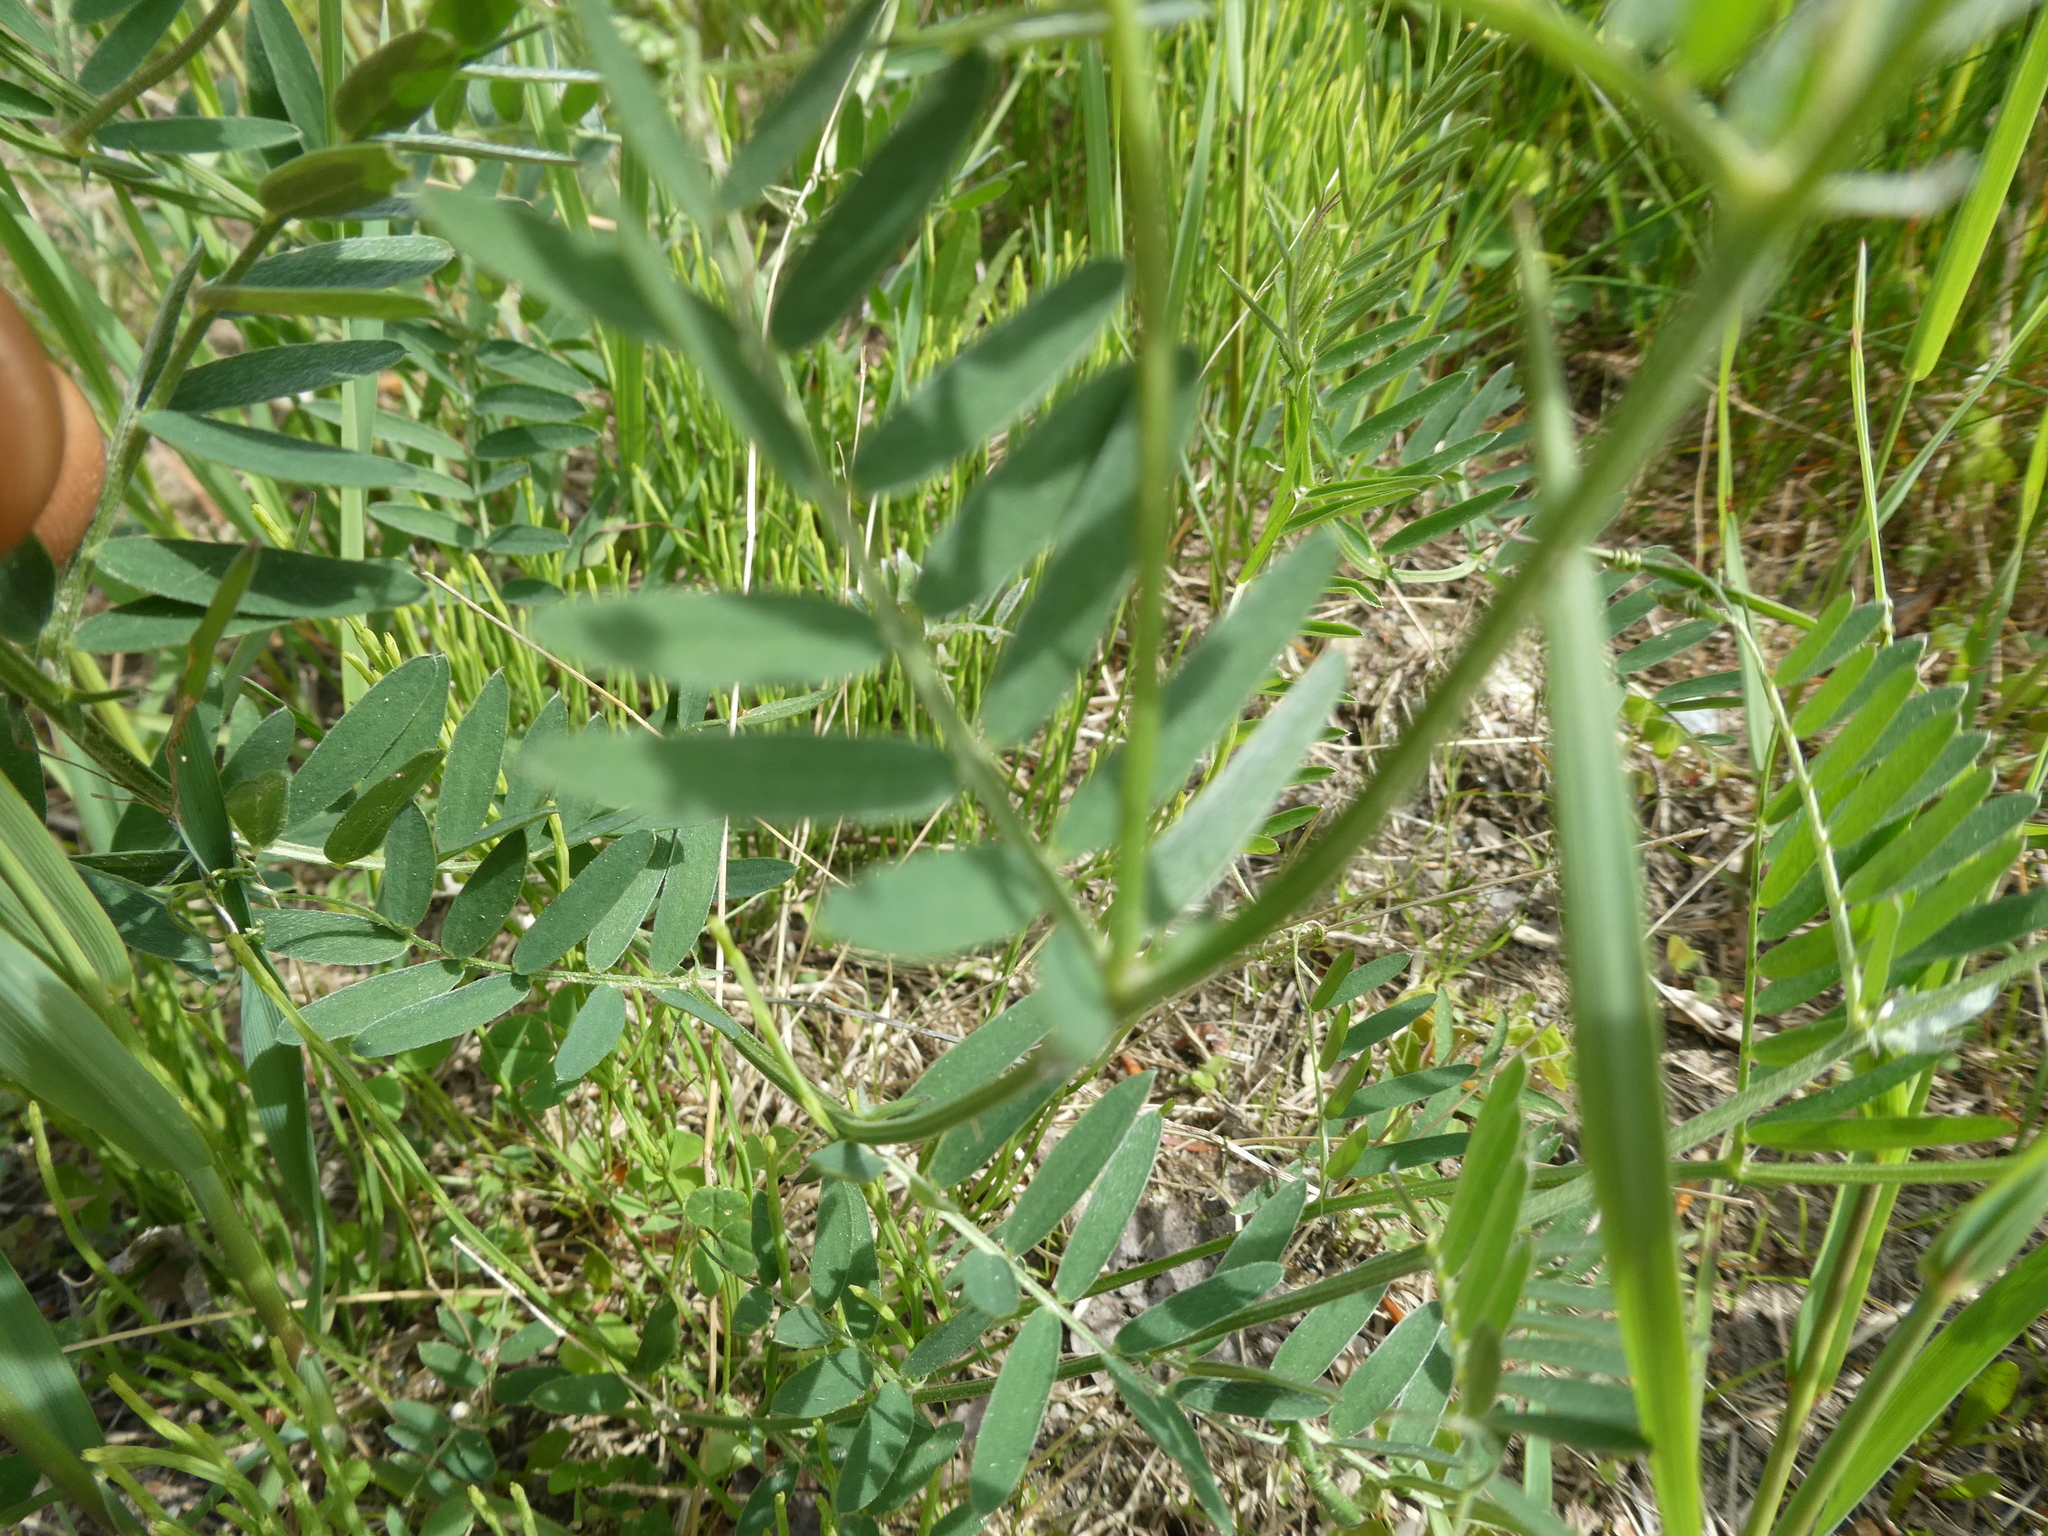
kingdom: Plantae
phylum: Tracheophyta
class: Magnoliopsida
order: Fabales
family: Fabaceae
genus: Vicia
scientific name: Vicia cracca
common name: Bird vetch
